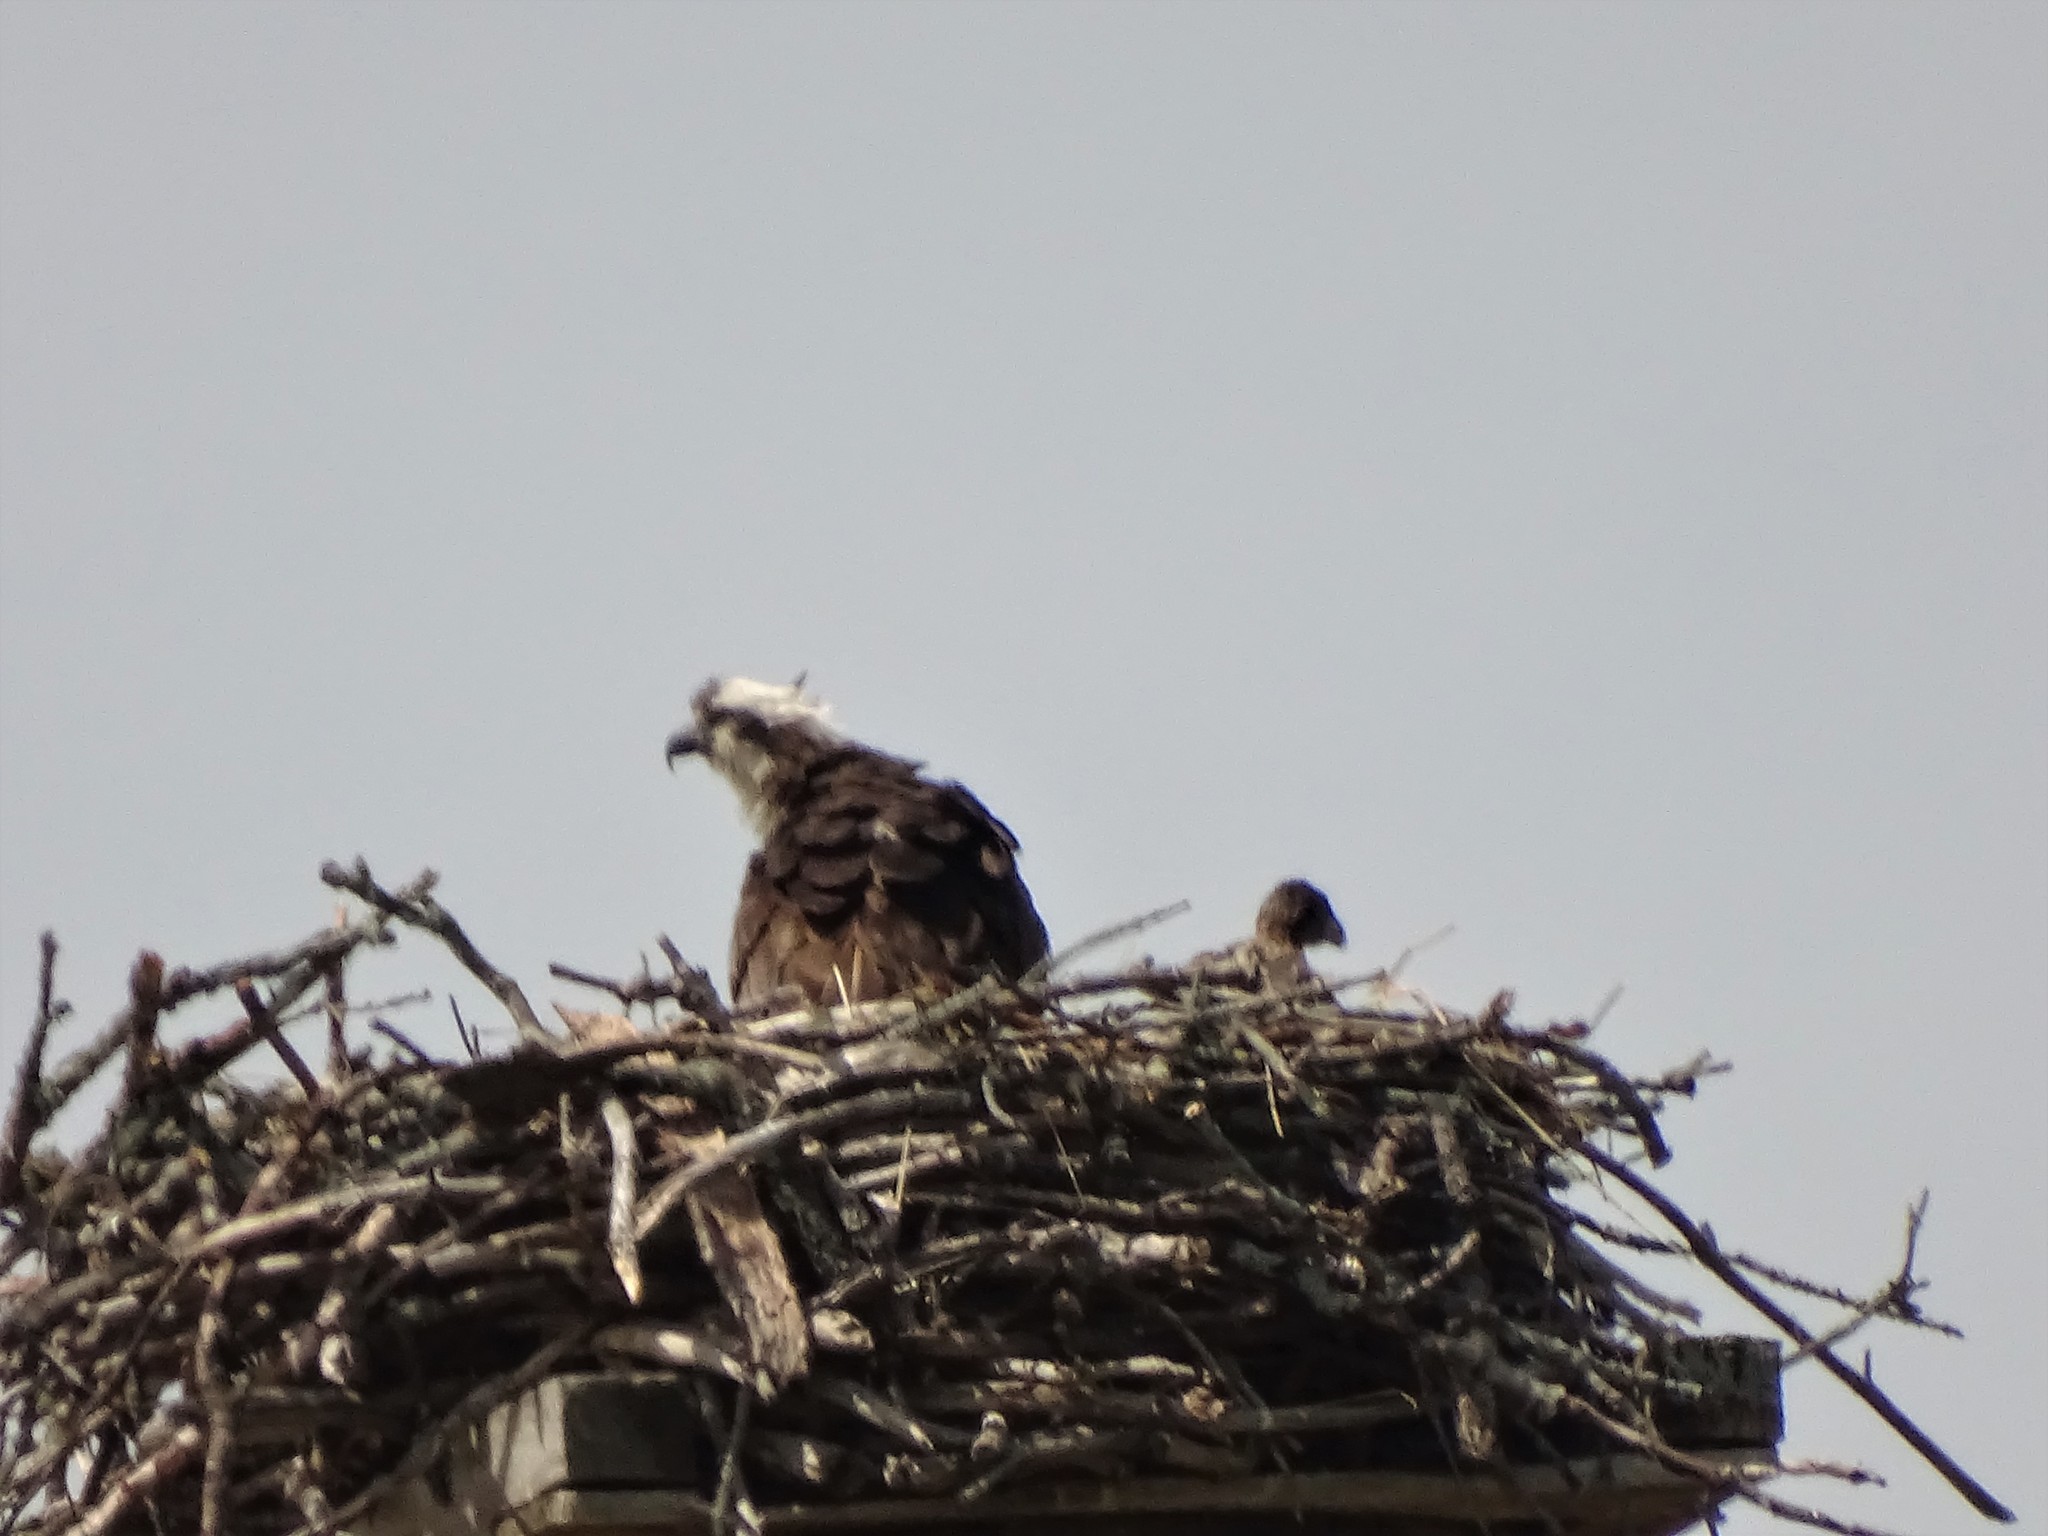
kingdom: Animalia
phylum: Chordata
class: Aves
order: Accipitriformes
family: Pandionidae
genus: Pandion
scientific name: Pandion haliaetus
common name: Osprey
